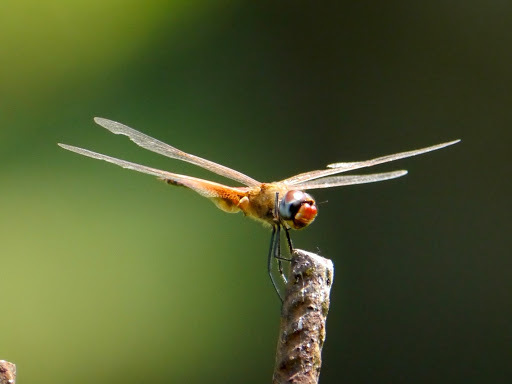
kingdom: Animalia
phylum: Arthropoda
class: Insecta
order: Odonata
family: Libellulidae
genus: Tramea
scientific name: Tramea basilaris
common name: Keyhole glider
